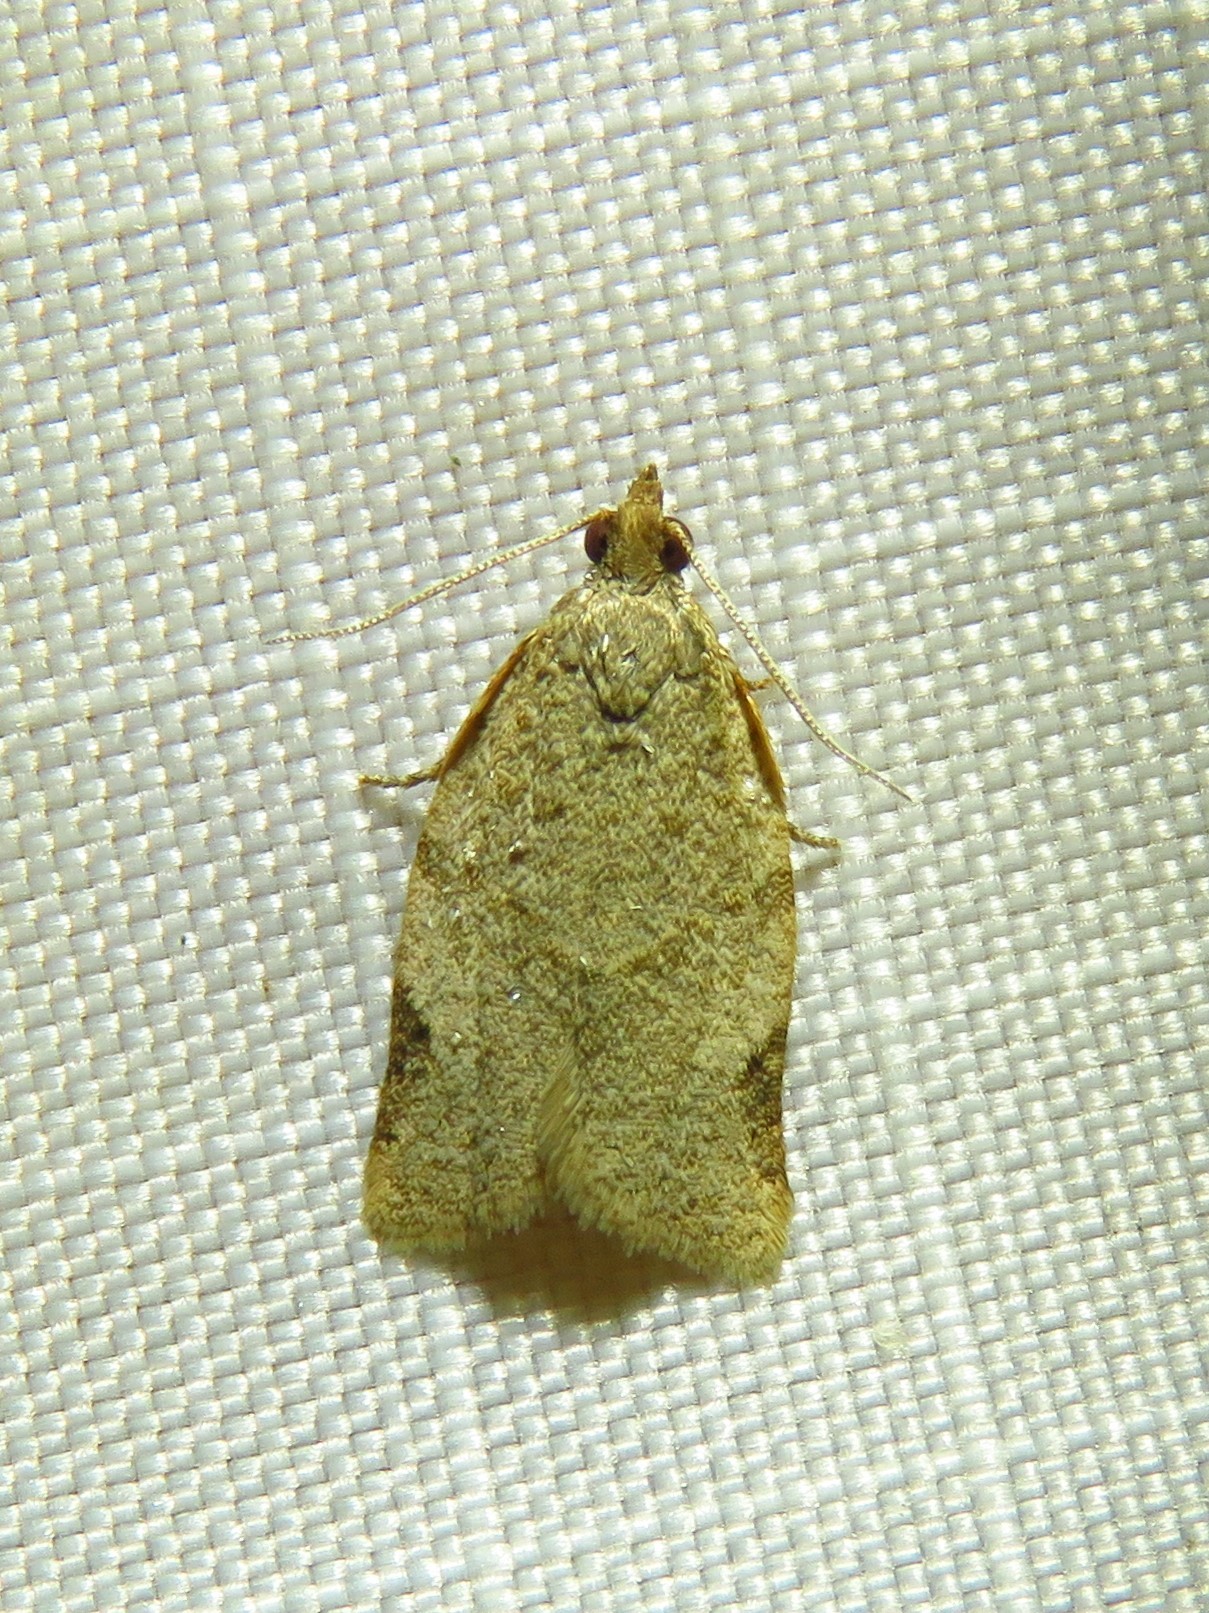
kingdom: Animalia
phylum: Arthropoda
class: Insecta
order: Lepidoptera
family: Tortricidae
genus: Clepsis
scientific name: Clepsis virescana
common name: Greenish apple moth
